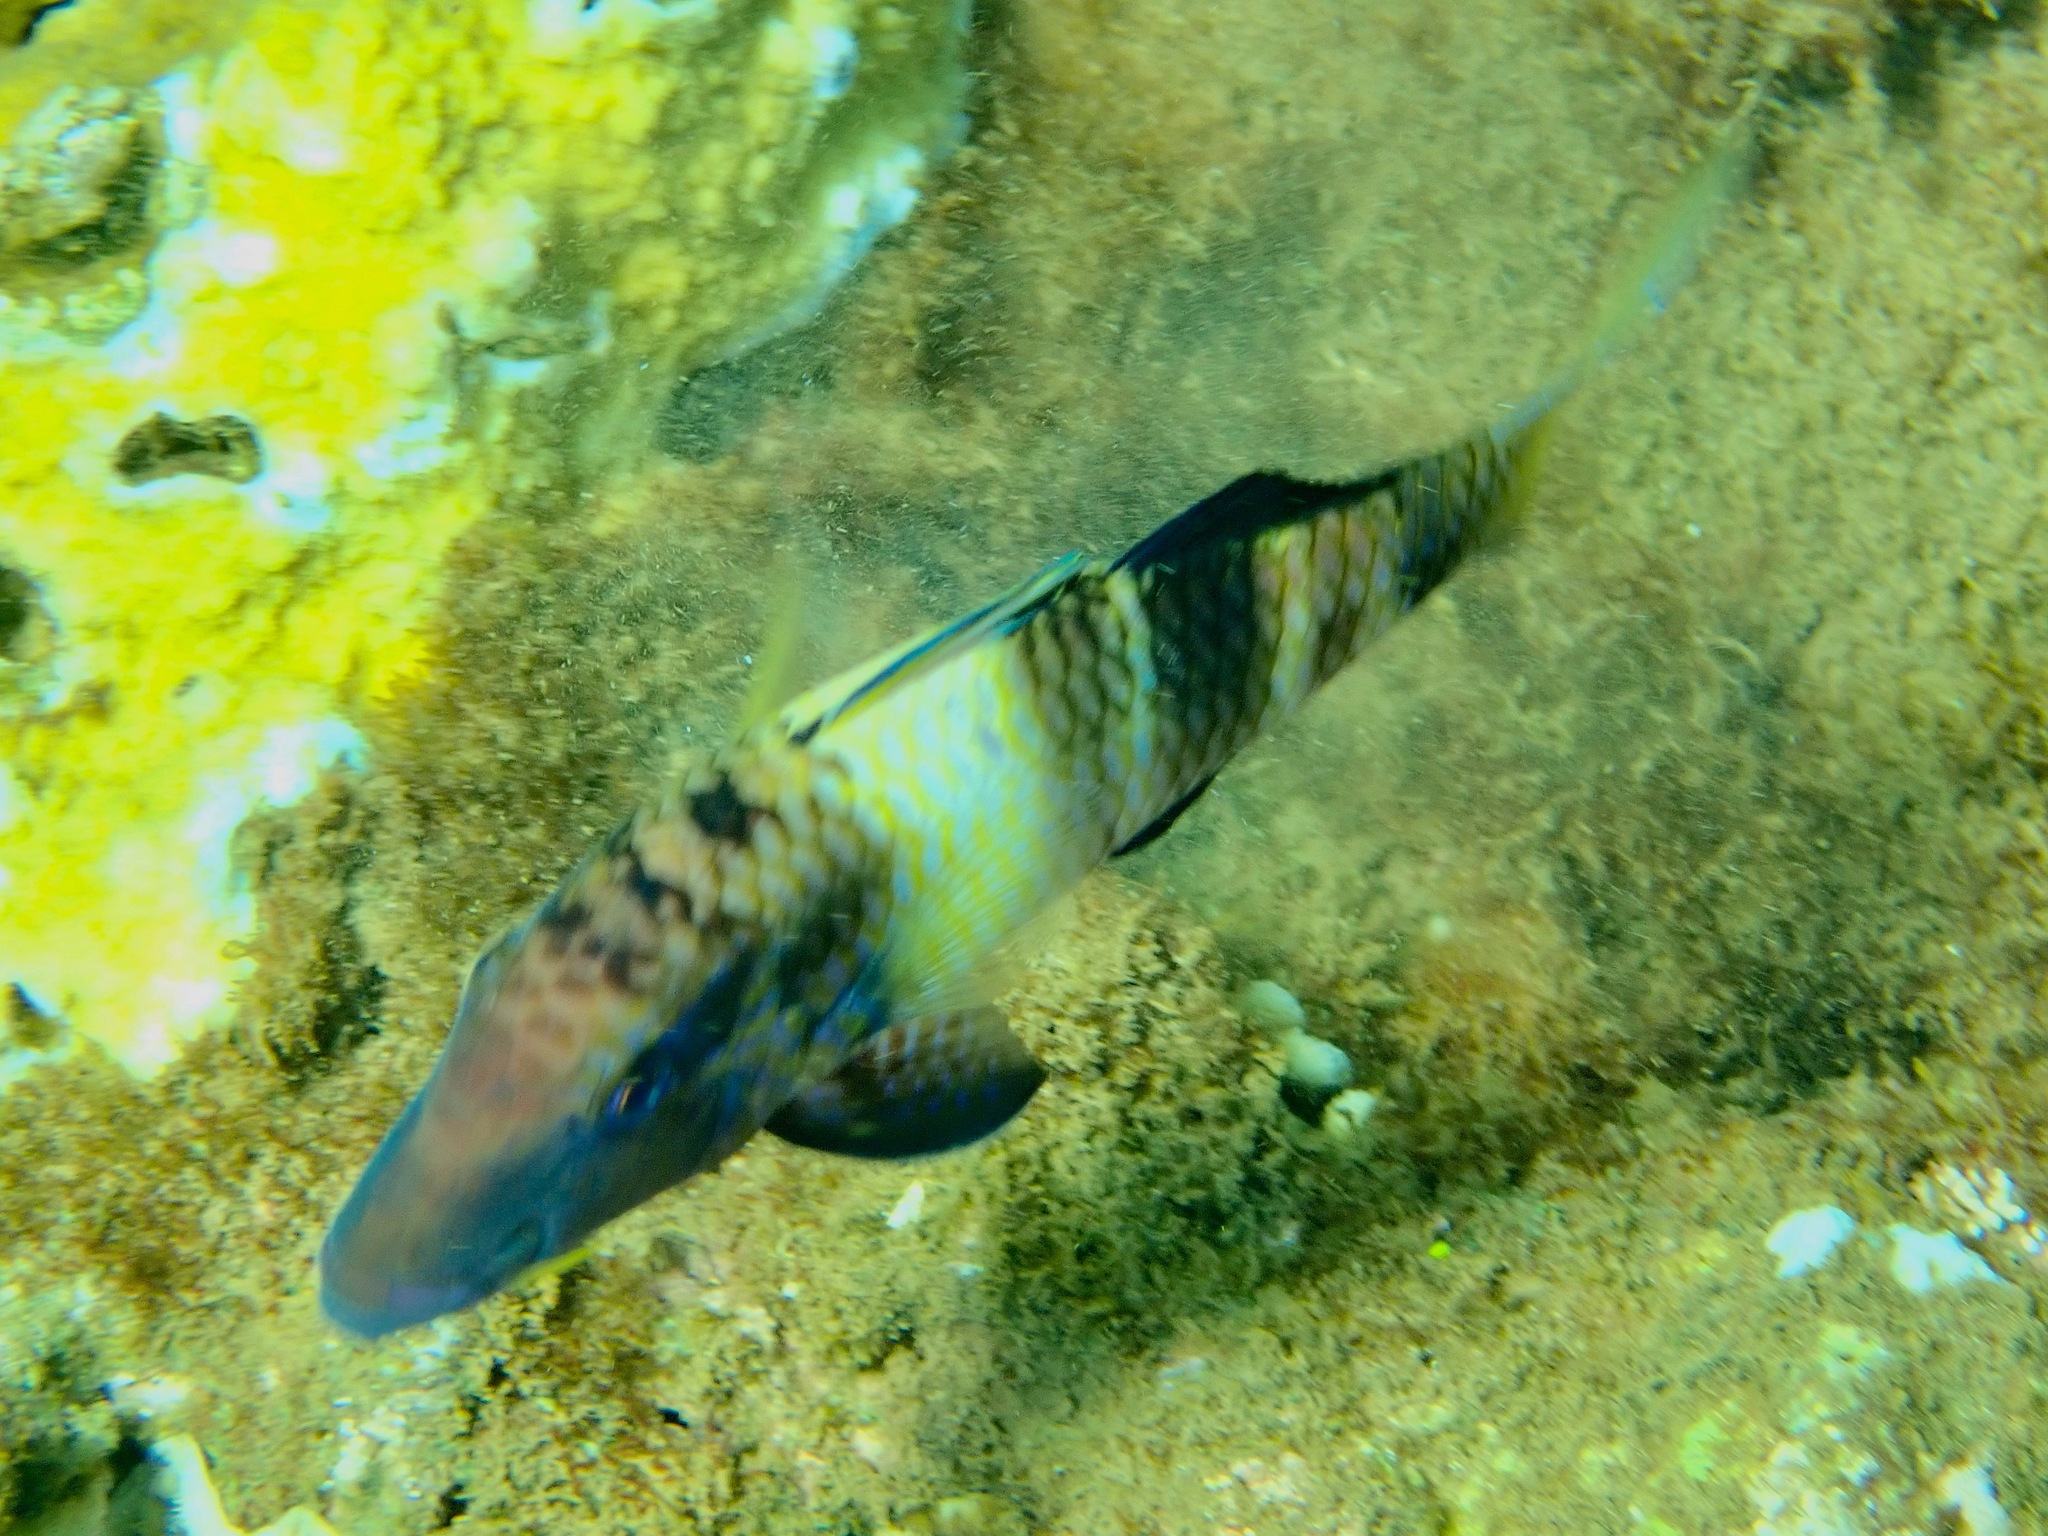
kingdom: Animalia
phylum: Chordata
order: Perciformes
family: Mullidae
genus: Parupeneus
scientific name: Parupeneus multifasciatus
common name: Manybar goatfish
